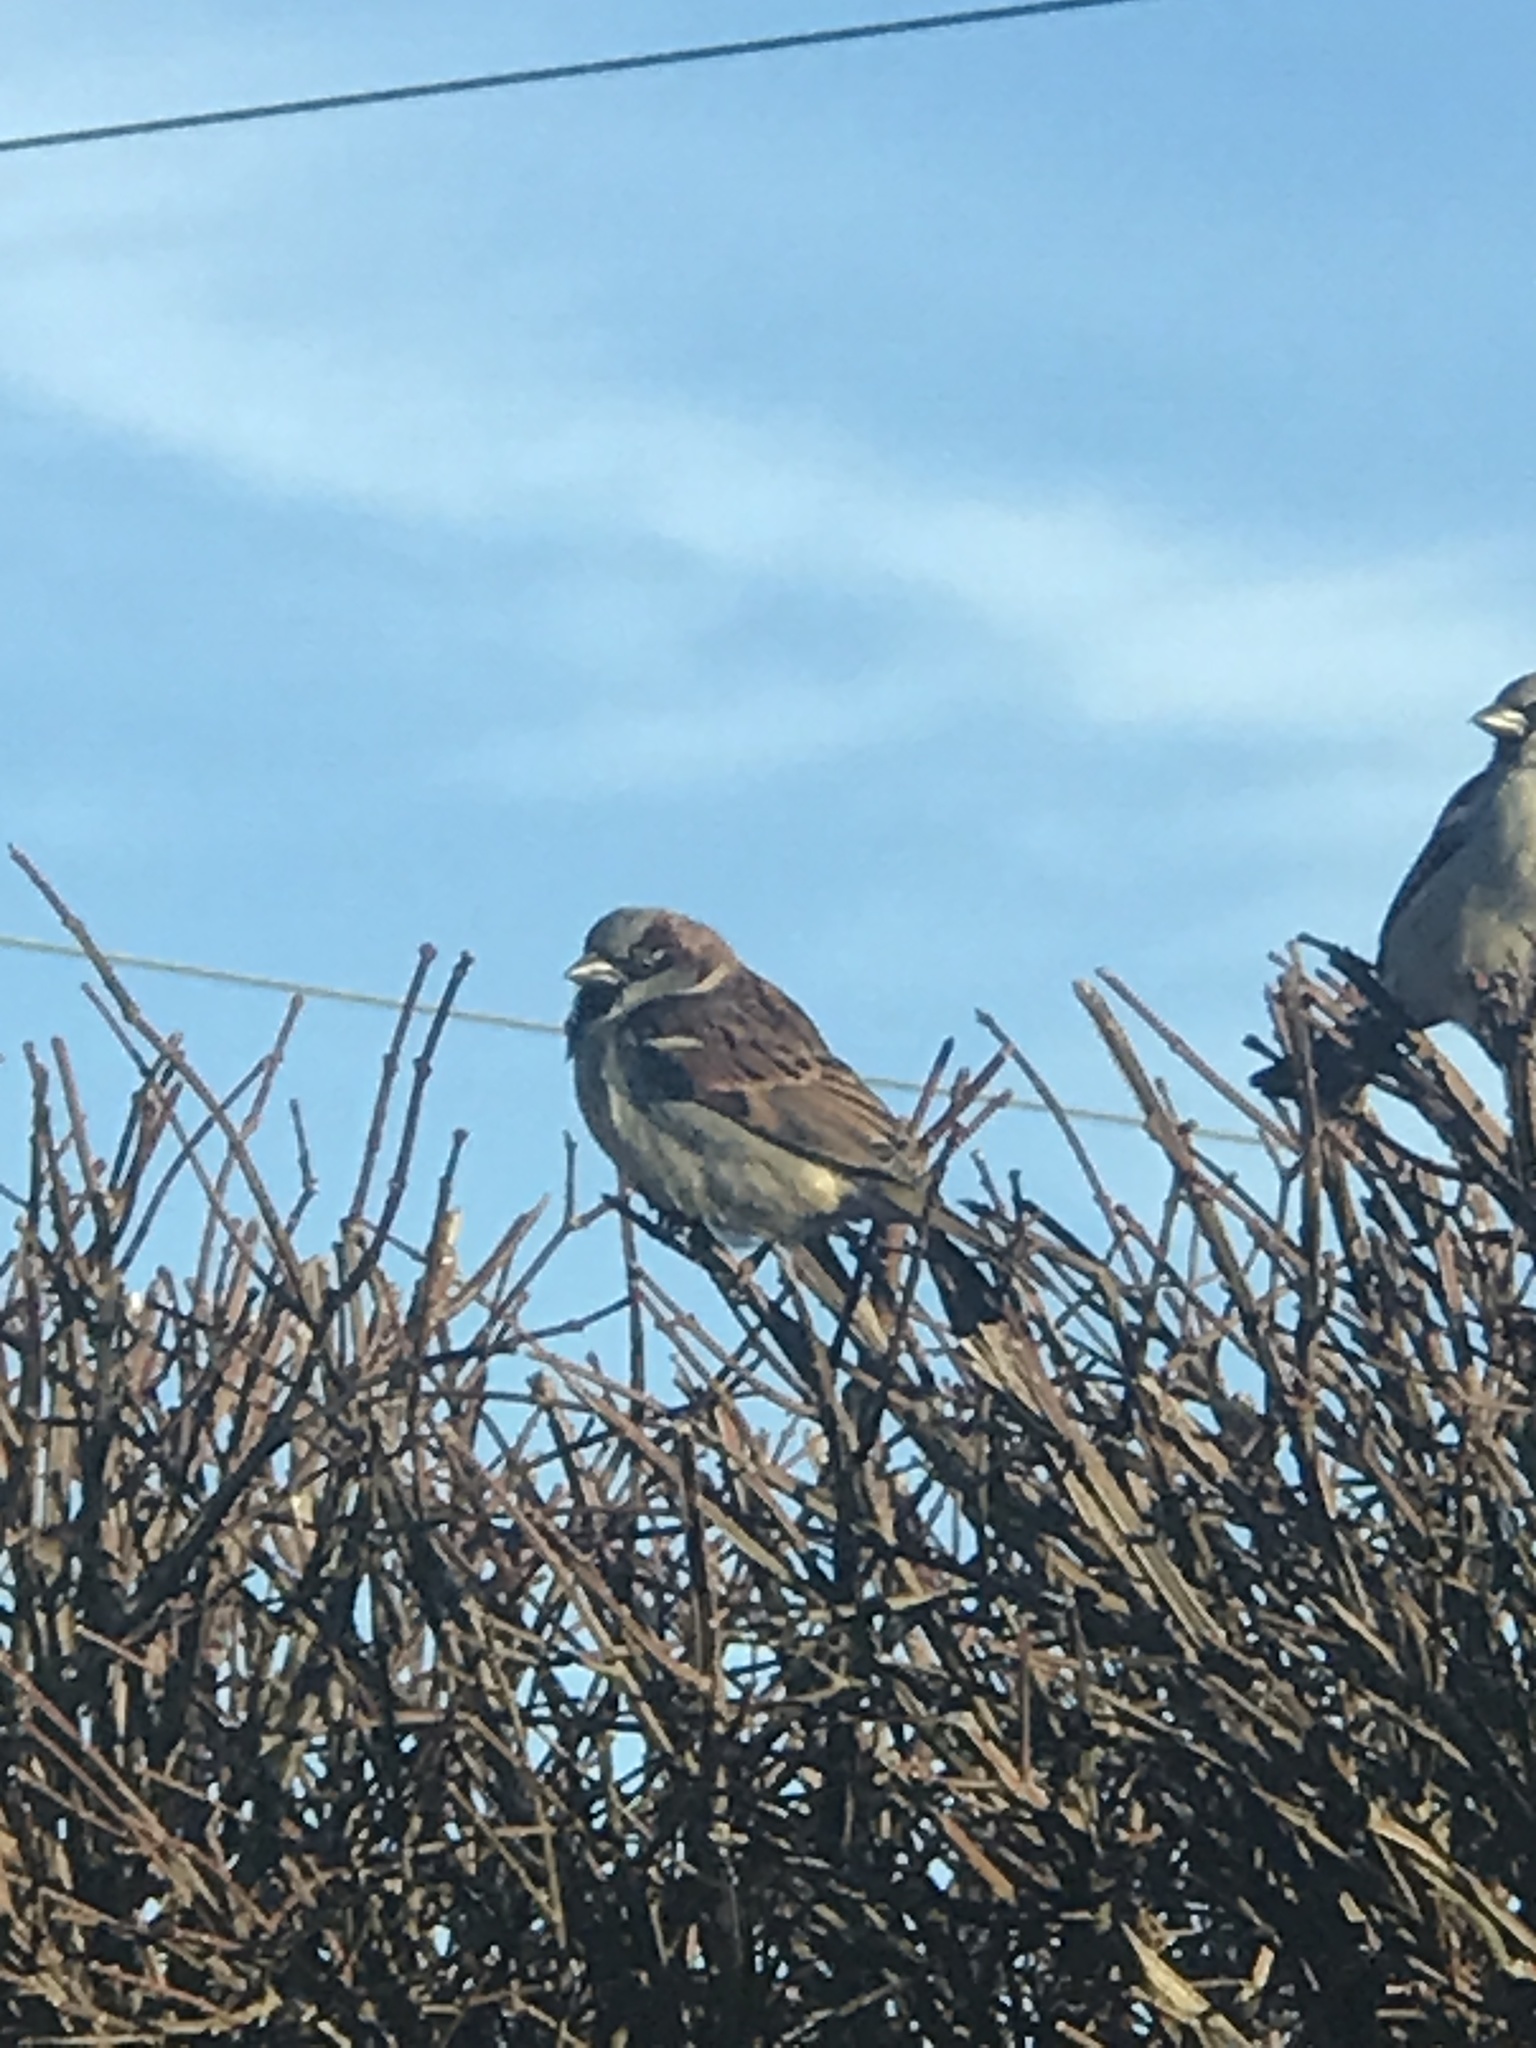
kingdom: Animalia
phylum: Chordata
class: Aves
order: Passeriformes
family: Passeridae
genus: Passer
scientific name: Passer domesticus
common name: House sparrow
